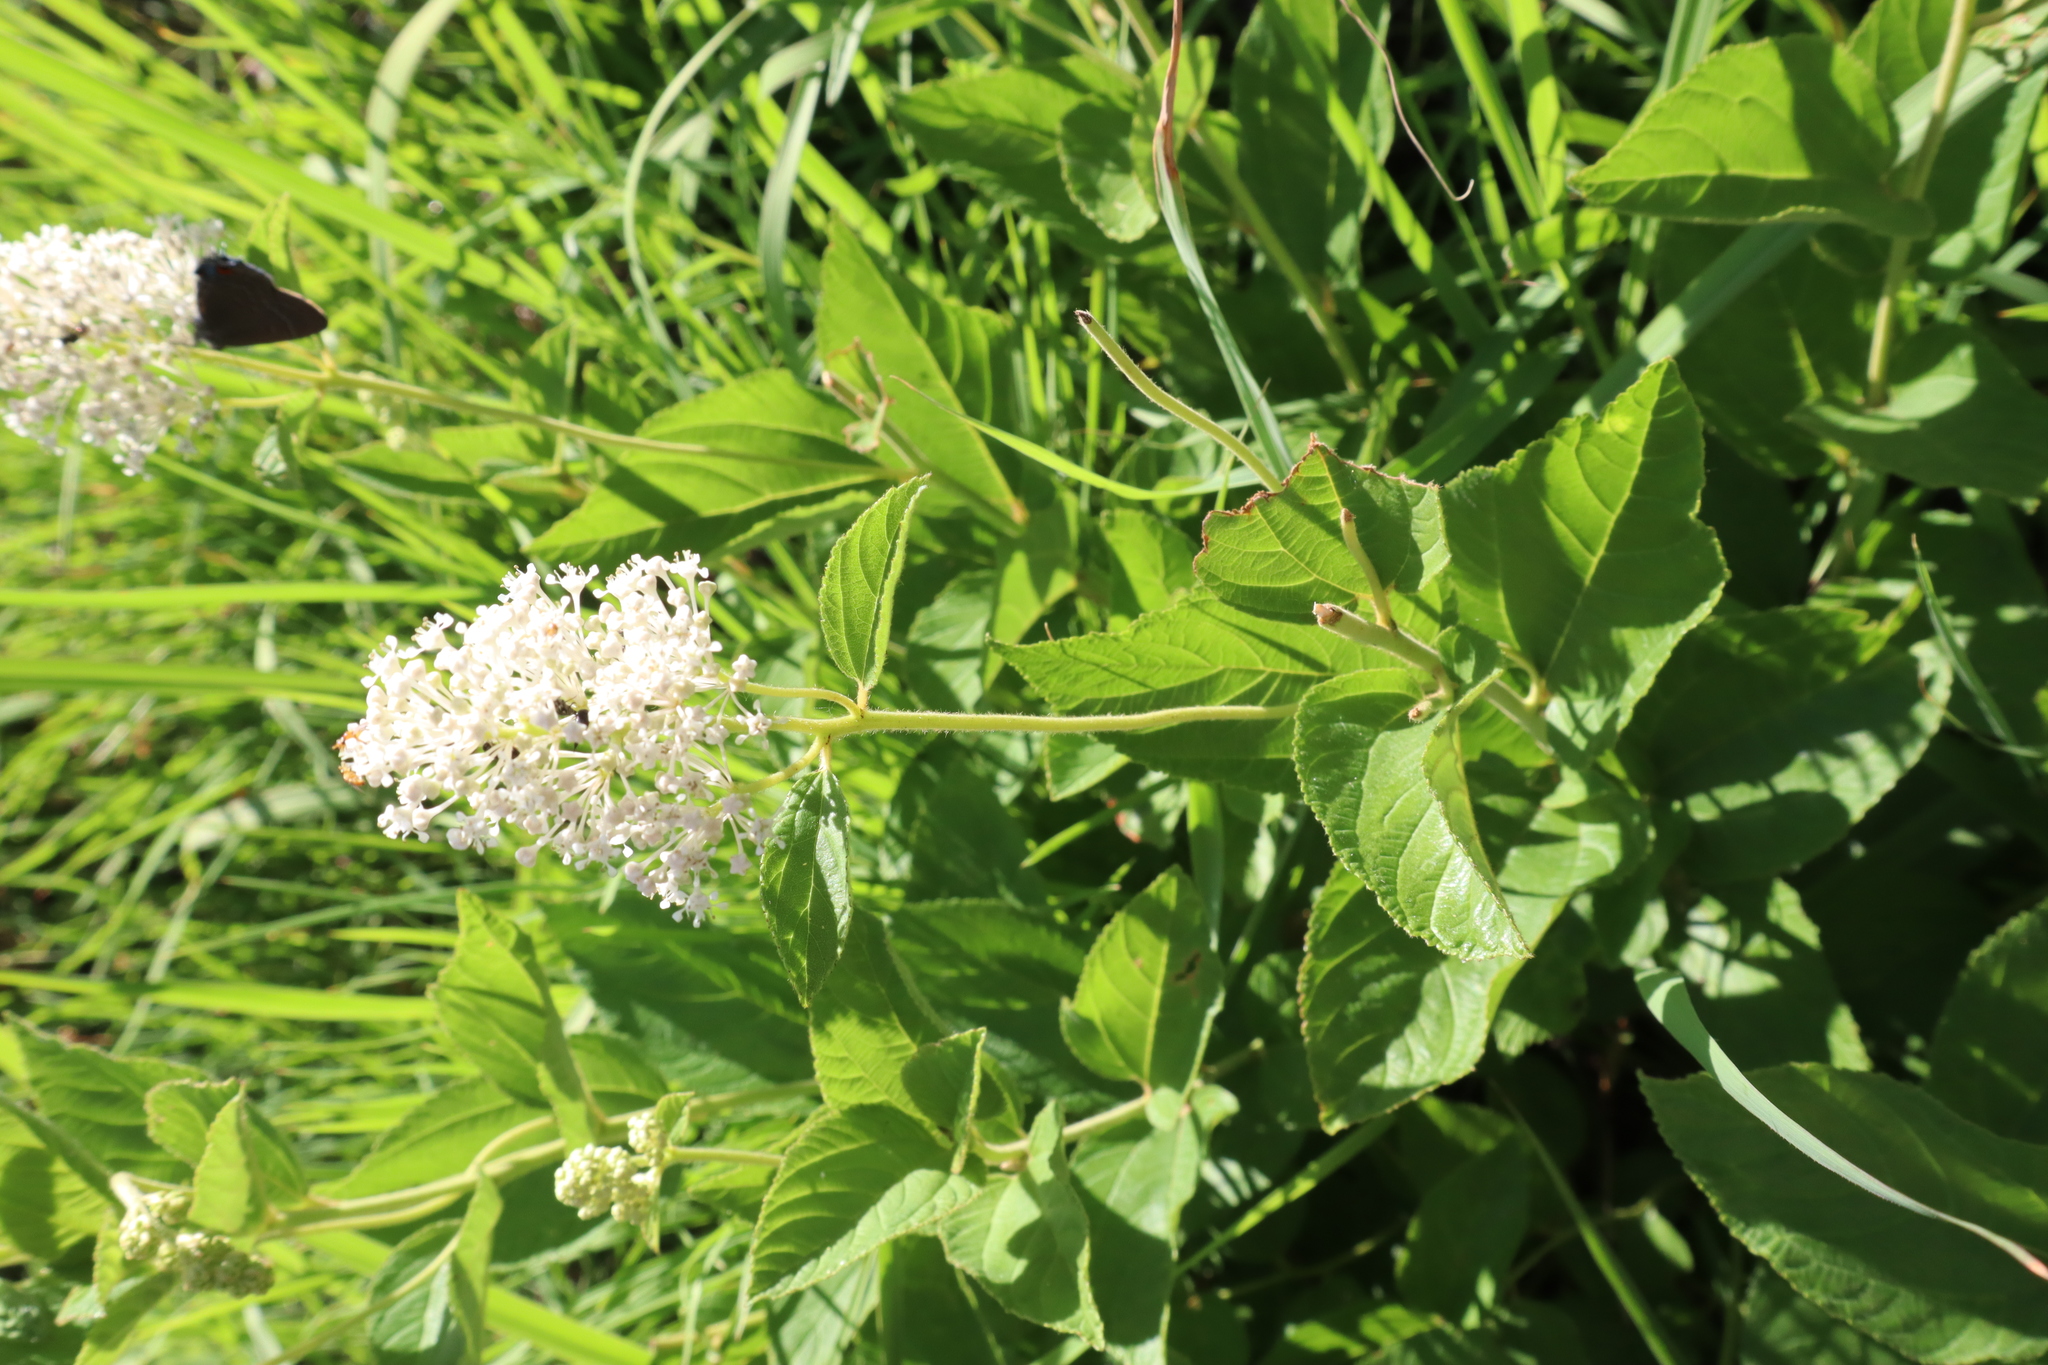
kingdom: Plantae
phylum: Tracheophyta
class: Magnoliopsida
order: Rosales
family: Rhamnaceae
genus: Ceanothus
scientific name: Ceanothus americanus
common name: Redroot
